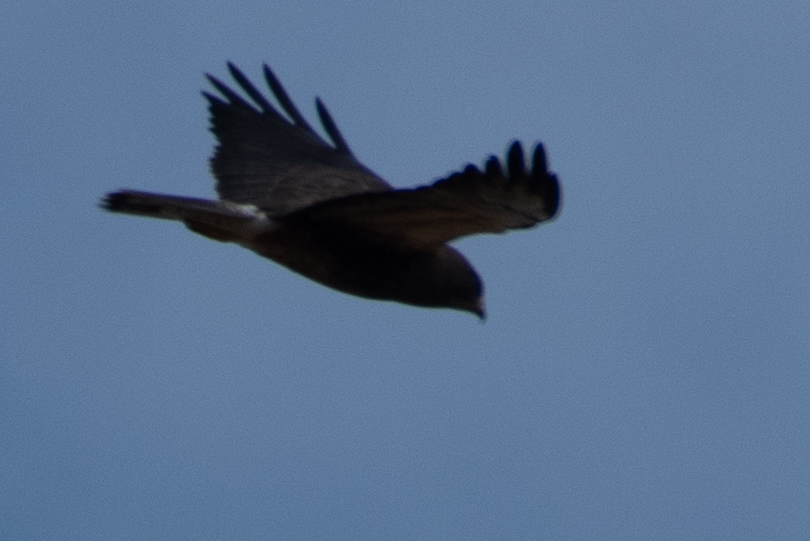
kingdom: Animalia
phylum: Chordata
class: Aves
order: Accipitriformes
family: Accipitridae
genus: Buteo
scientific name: Buteo swainsoni
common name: Swainson's hawk
